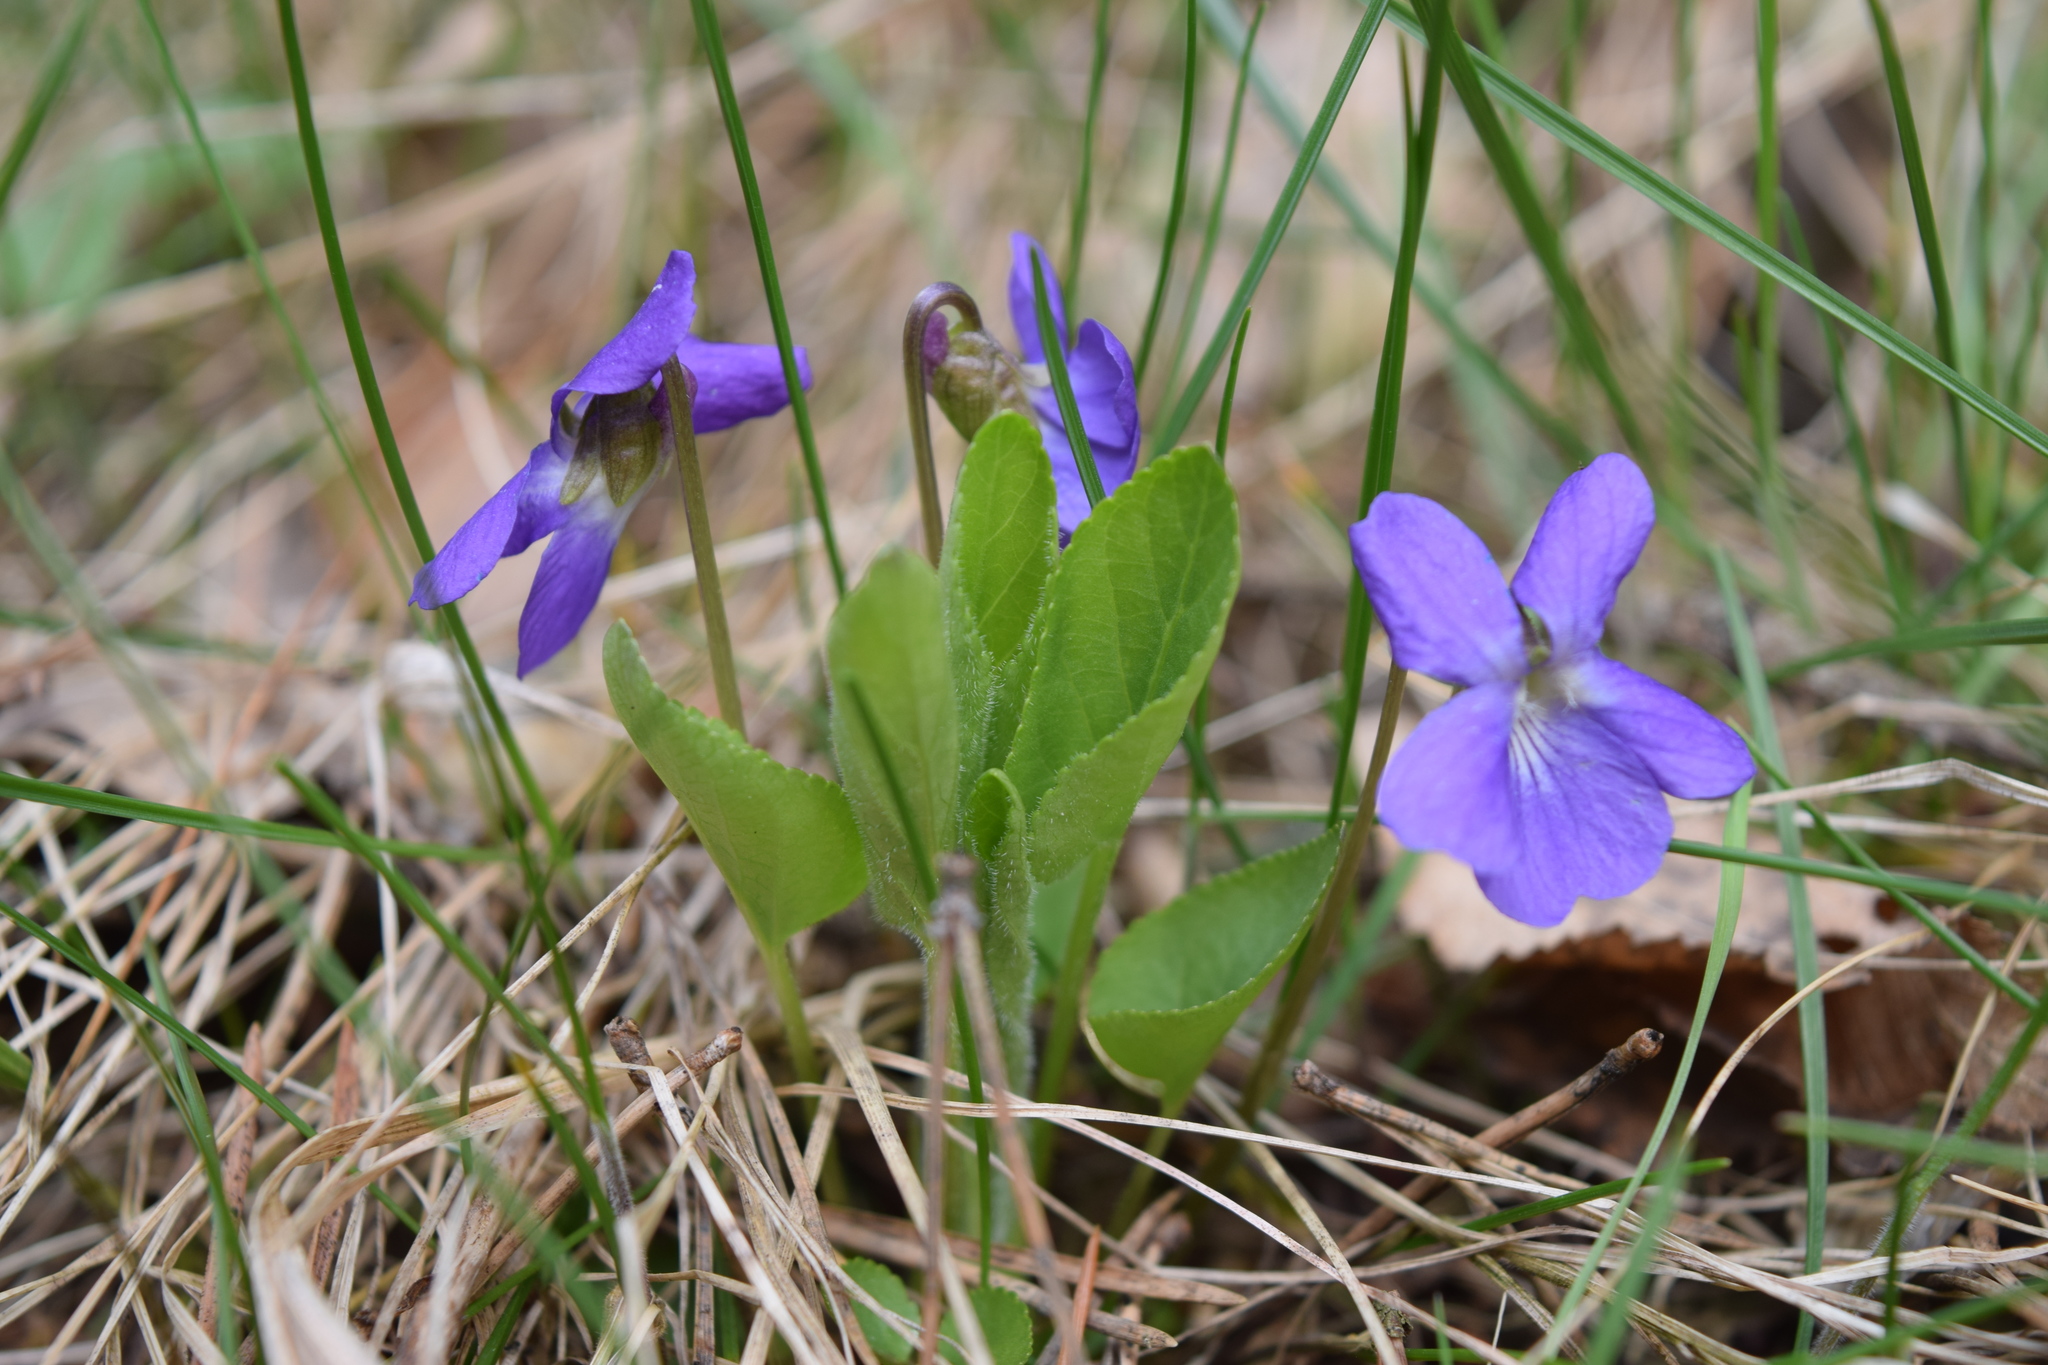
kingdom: Plantae
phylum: Tracheophyta
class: Magnoliopsida
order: Malpighiales
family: Violaceae
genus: Viola
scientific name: Viola hirta
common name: Hairy violet
